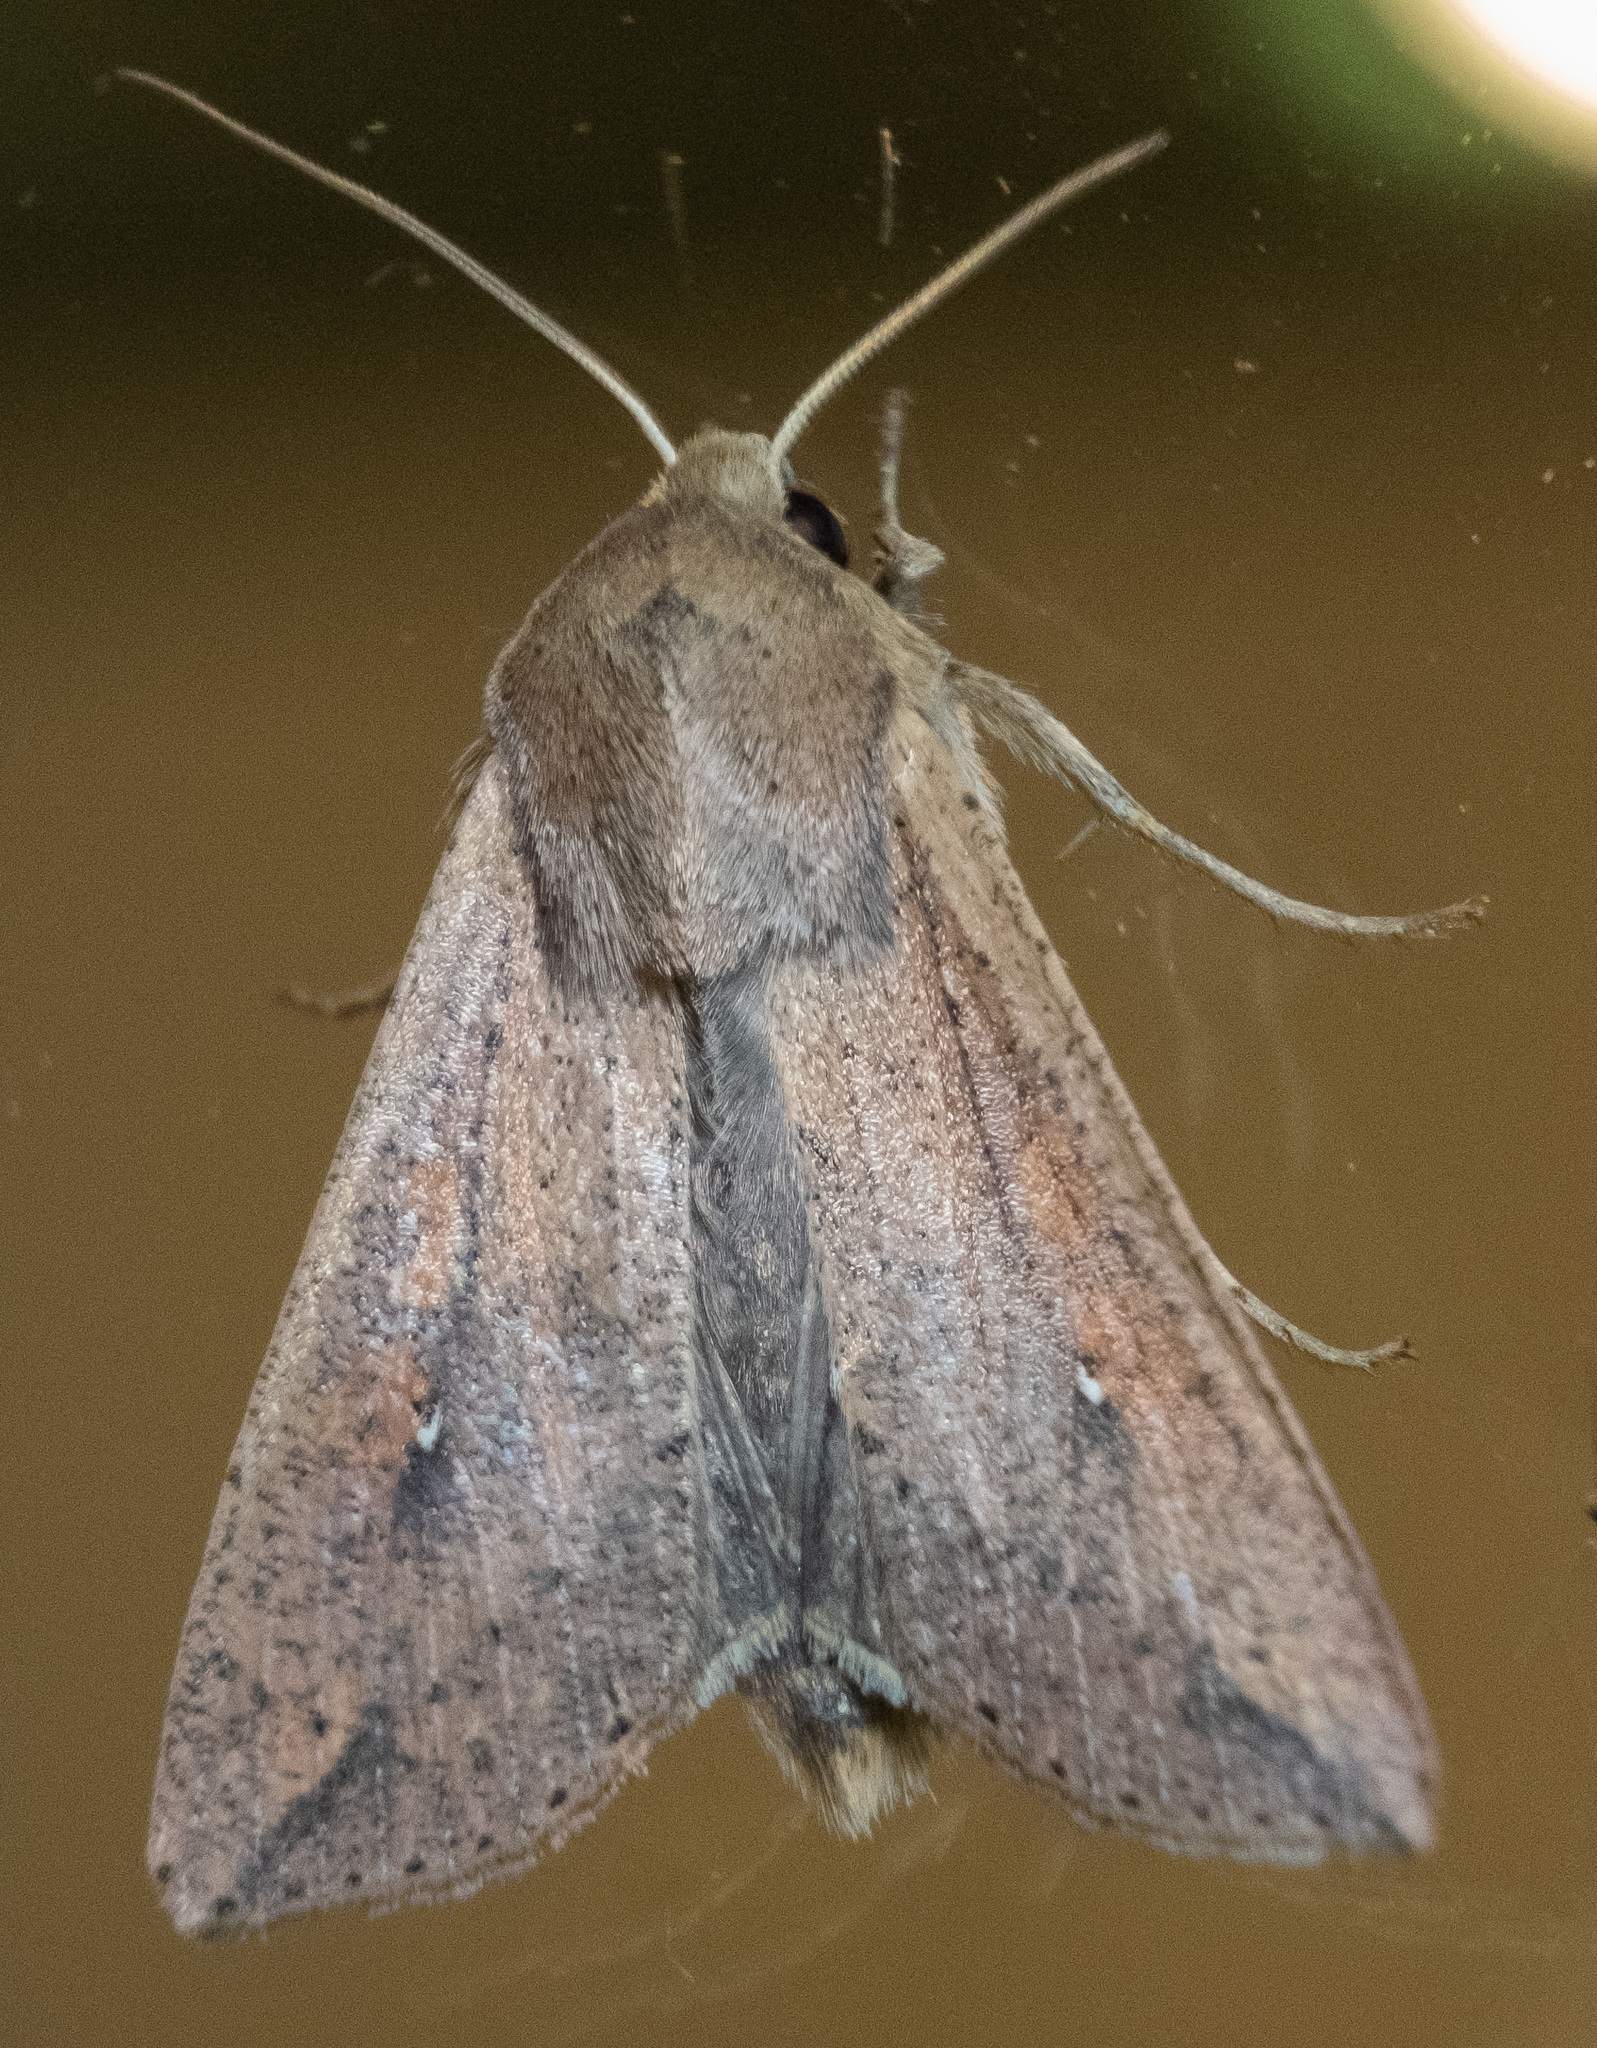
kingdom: Animalia
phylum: Arthropoda
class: Insecta
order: Lepidoptera
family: Noctuidae
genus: Mythimna
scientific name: Mythimna unipuncta
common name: White-speck
